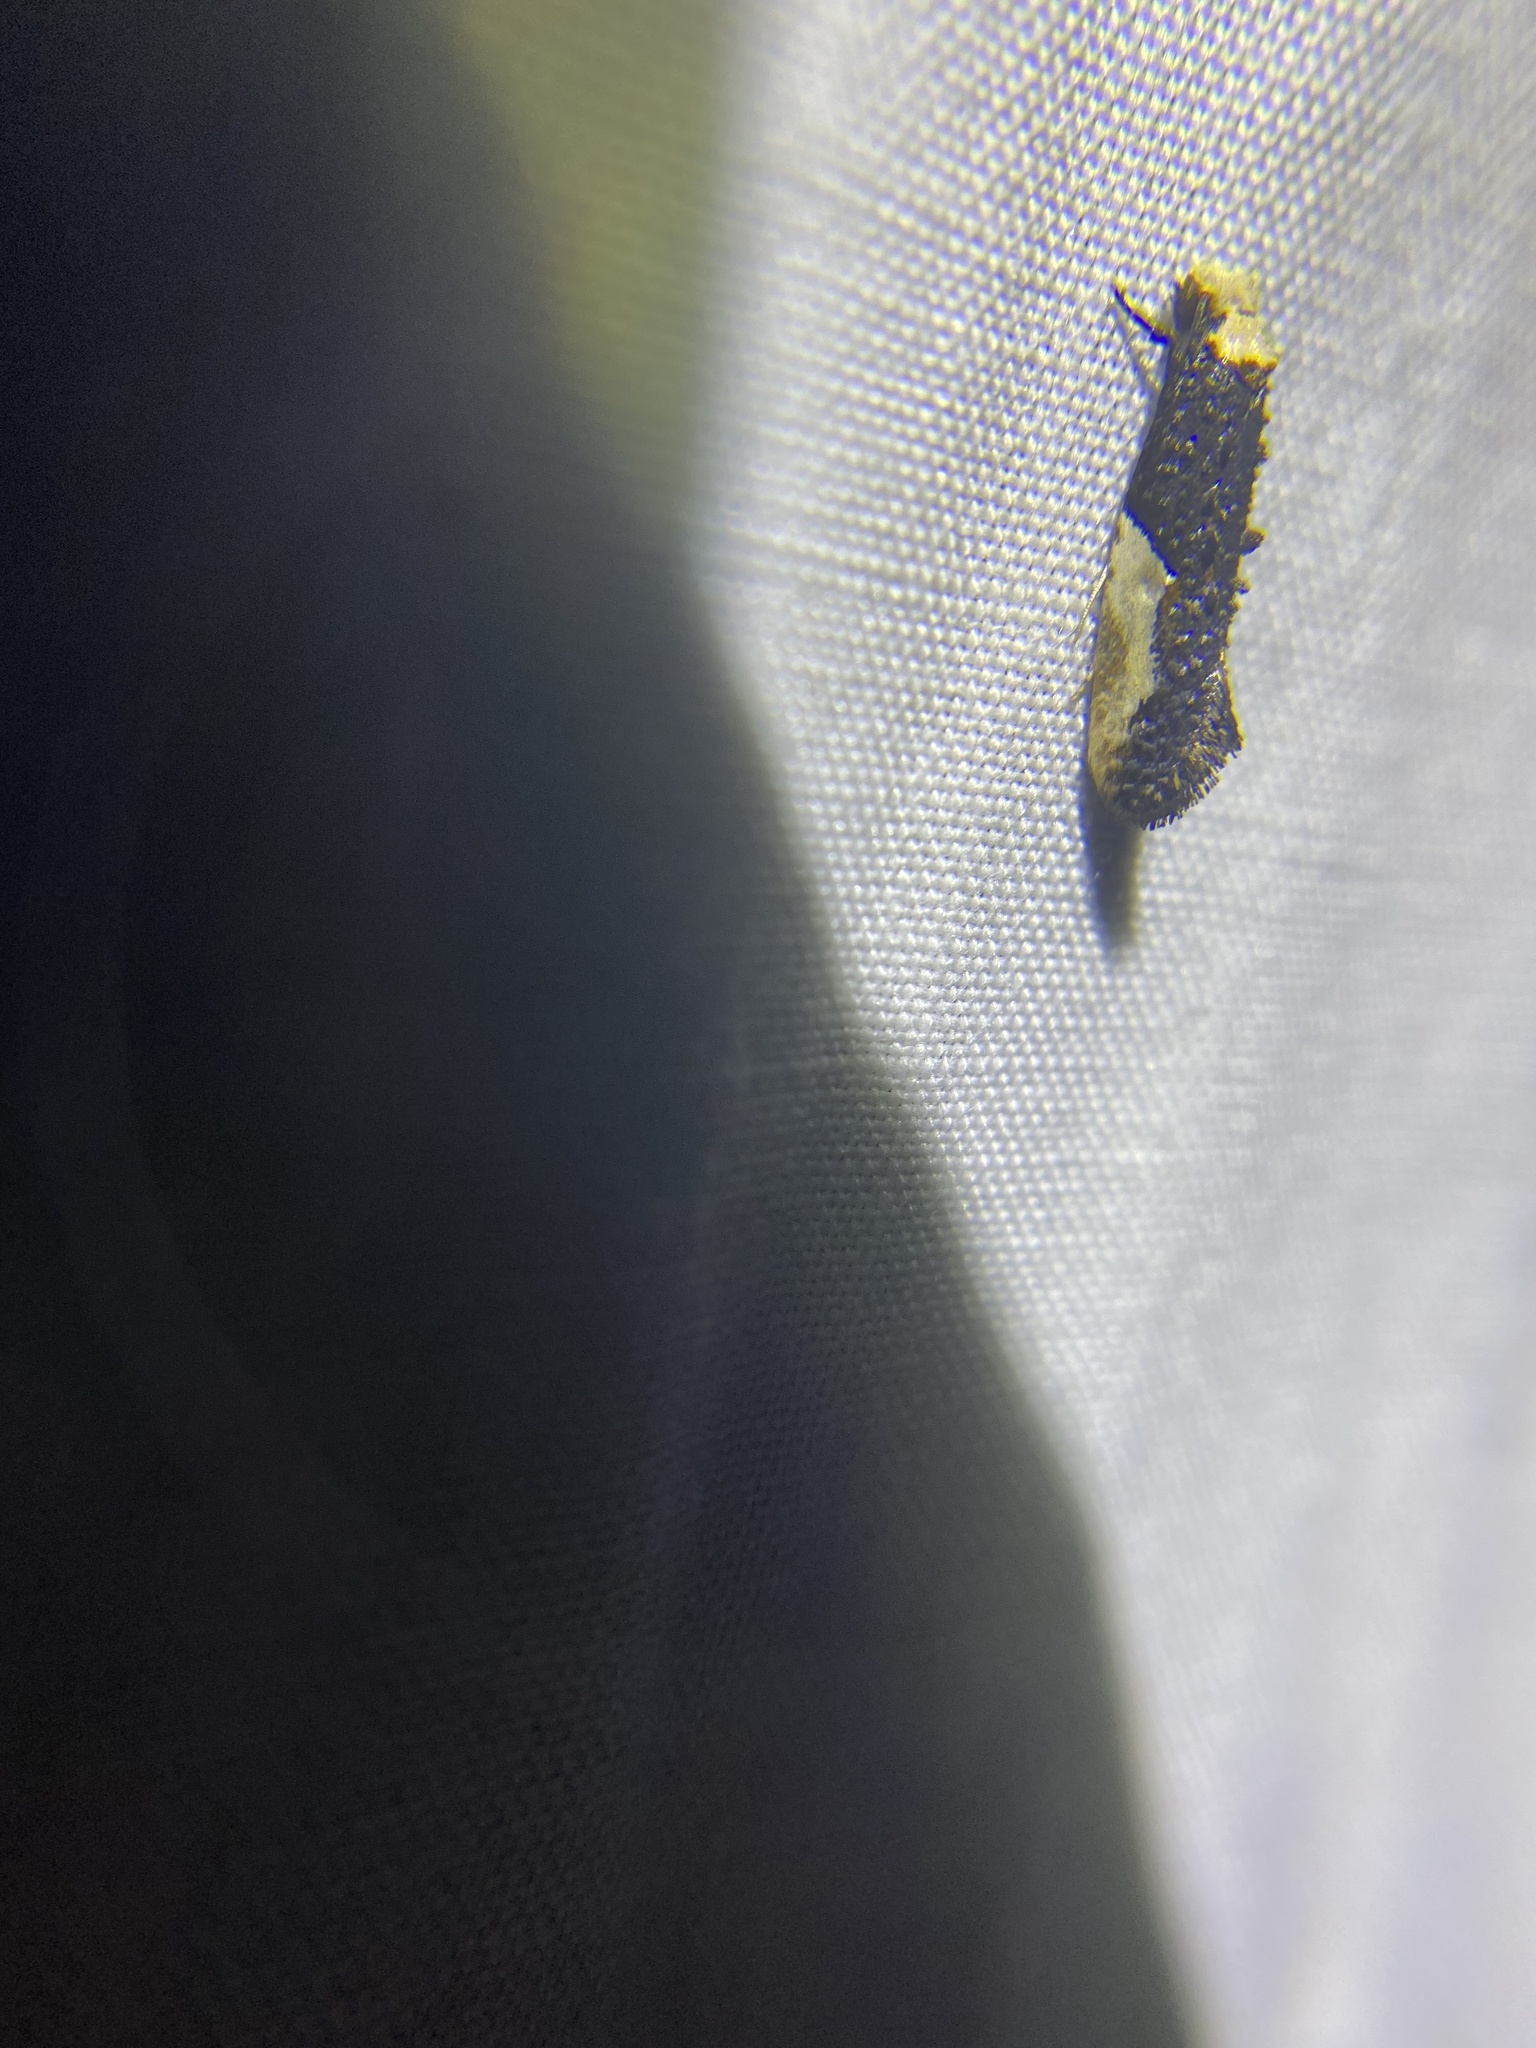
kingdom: Animalia
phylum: Arthropoda
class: Insecta
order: Lepidoptera
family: Tineidae
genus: Monopis
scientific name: Monopis longella
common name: Pavlovski's monopis moth
